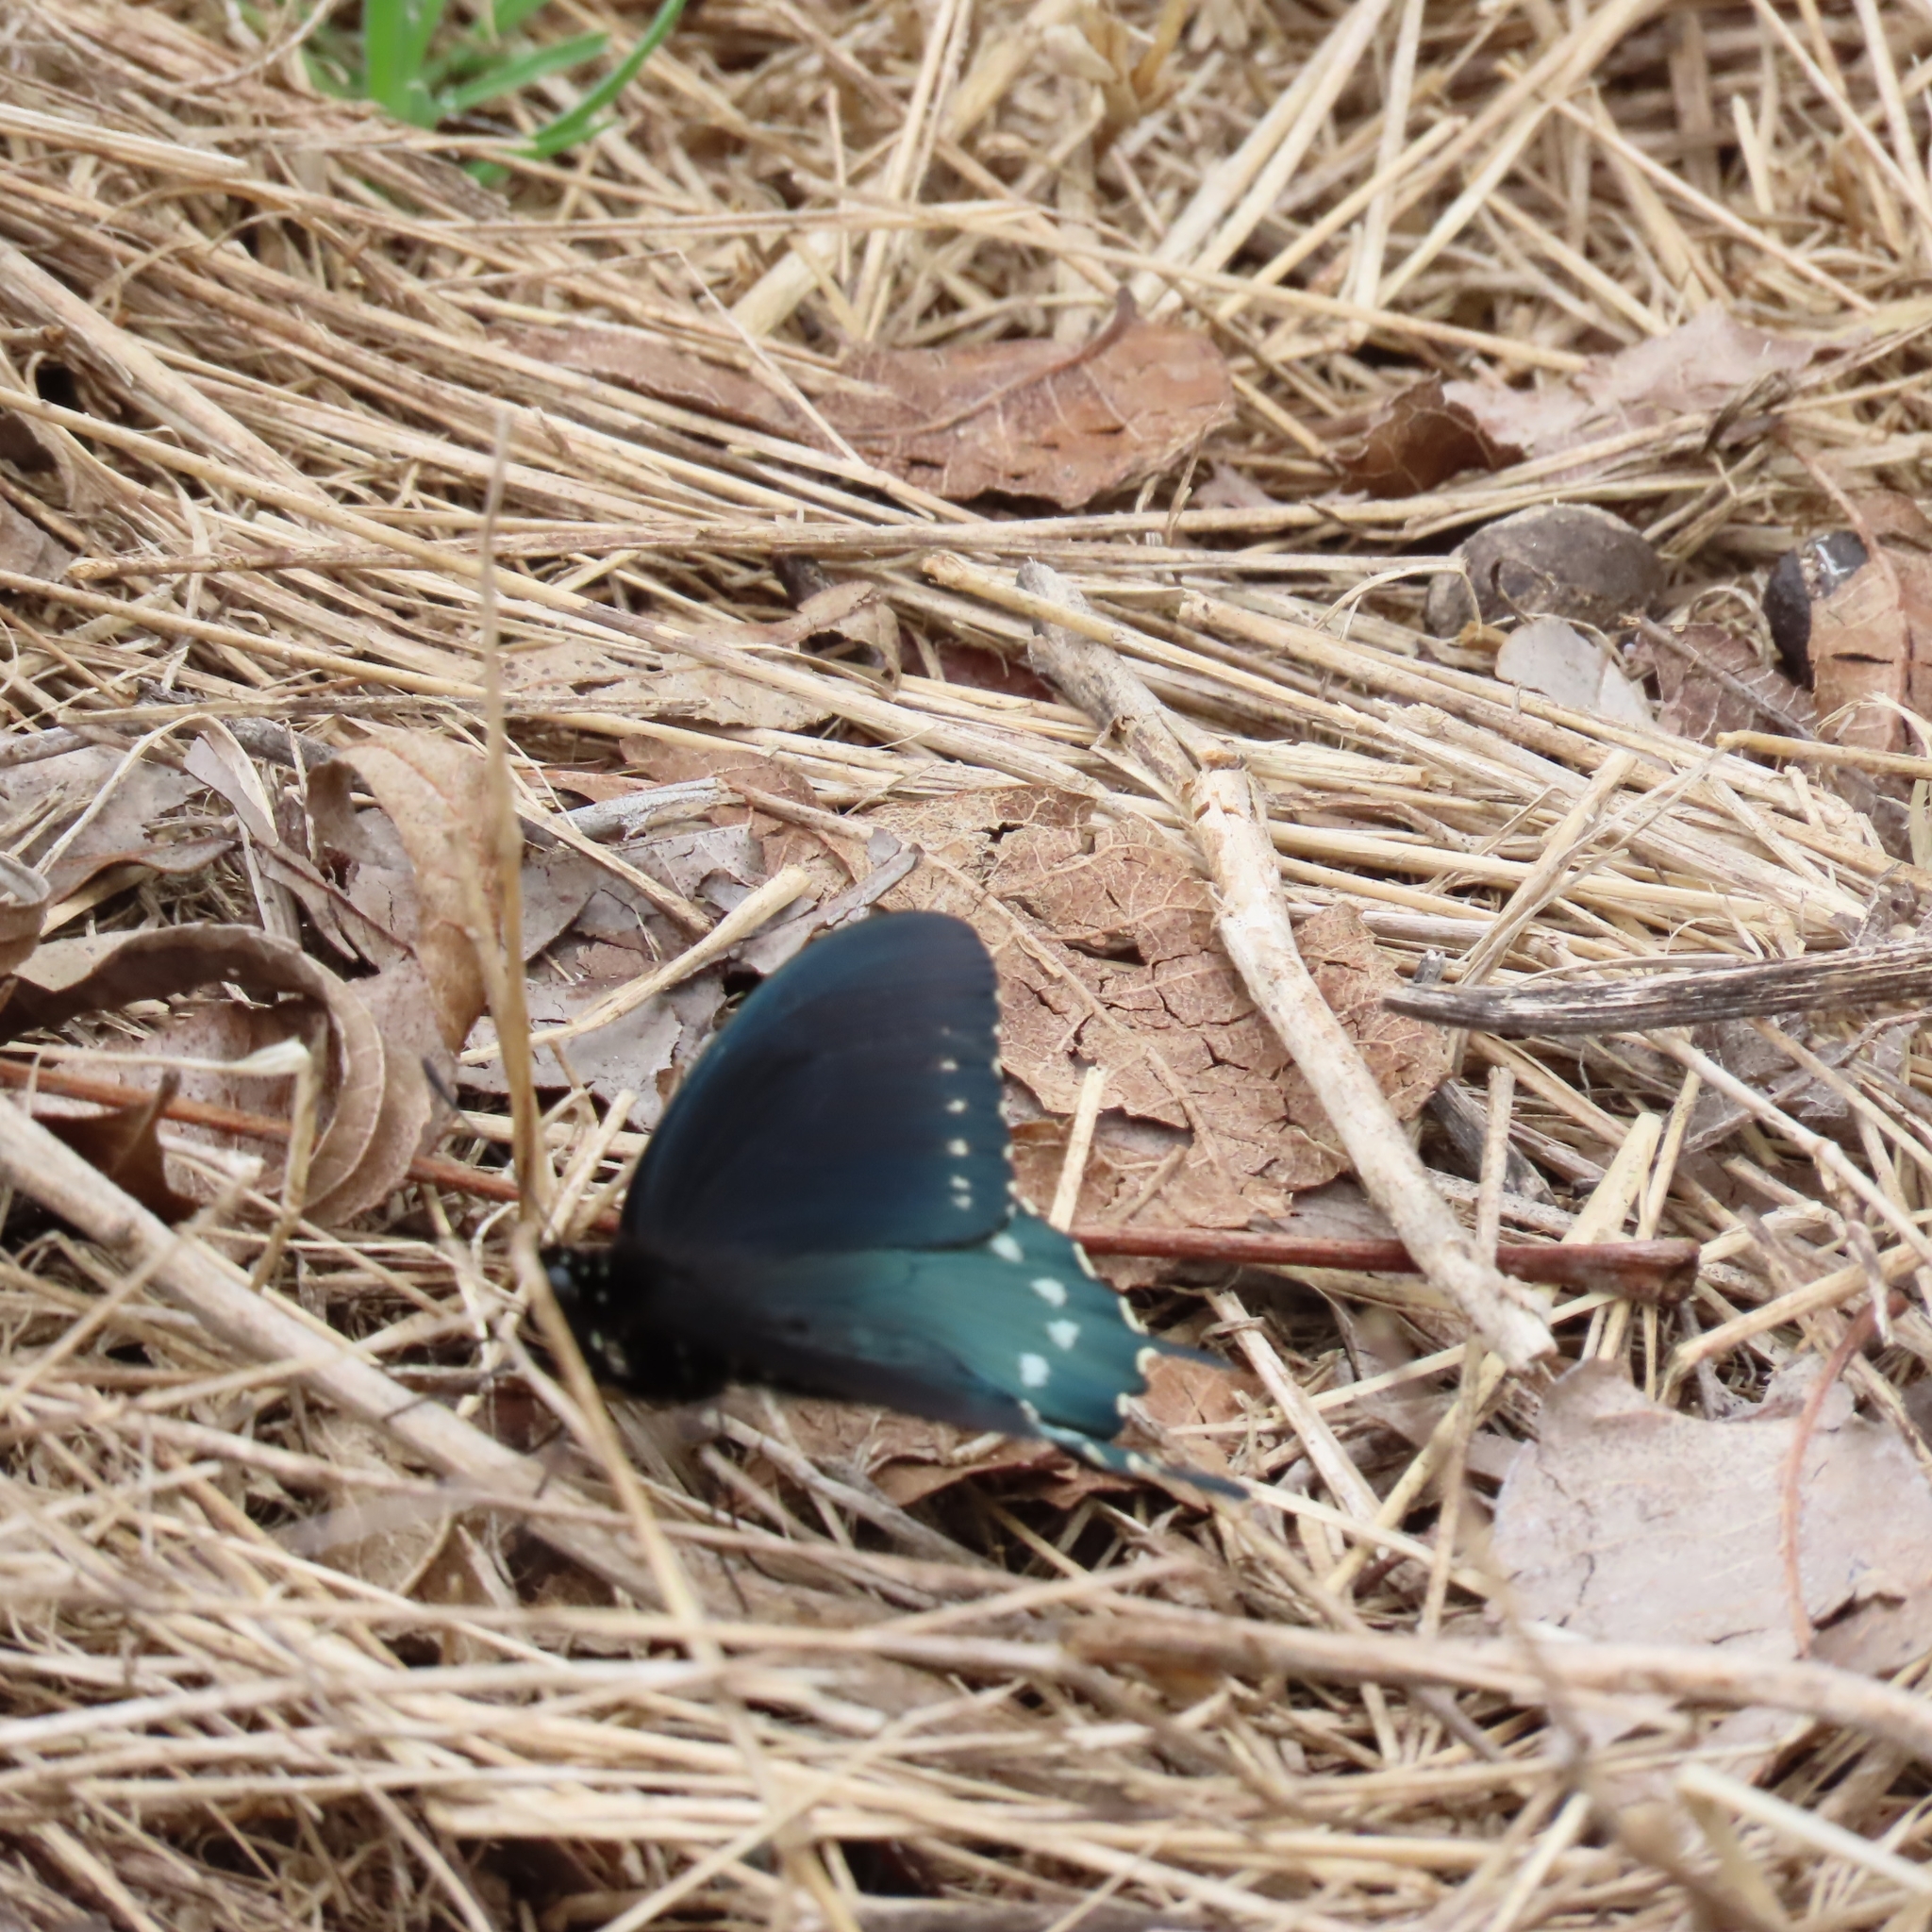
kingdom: Animalia
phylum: Arthropoda
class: Insecta
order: Lepidoptera
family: Papilionidae
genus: Battus
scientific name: Battus philenor
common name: Pipevine swallowtail
